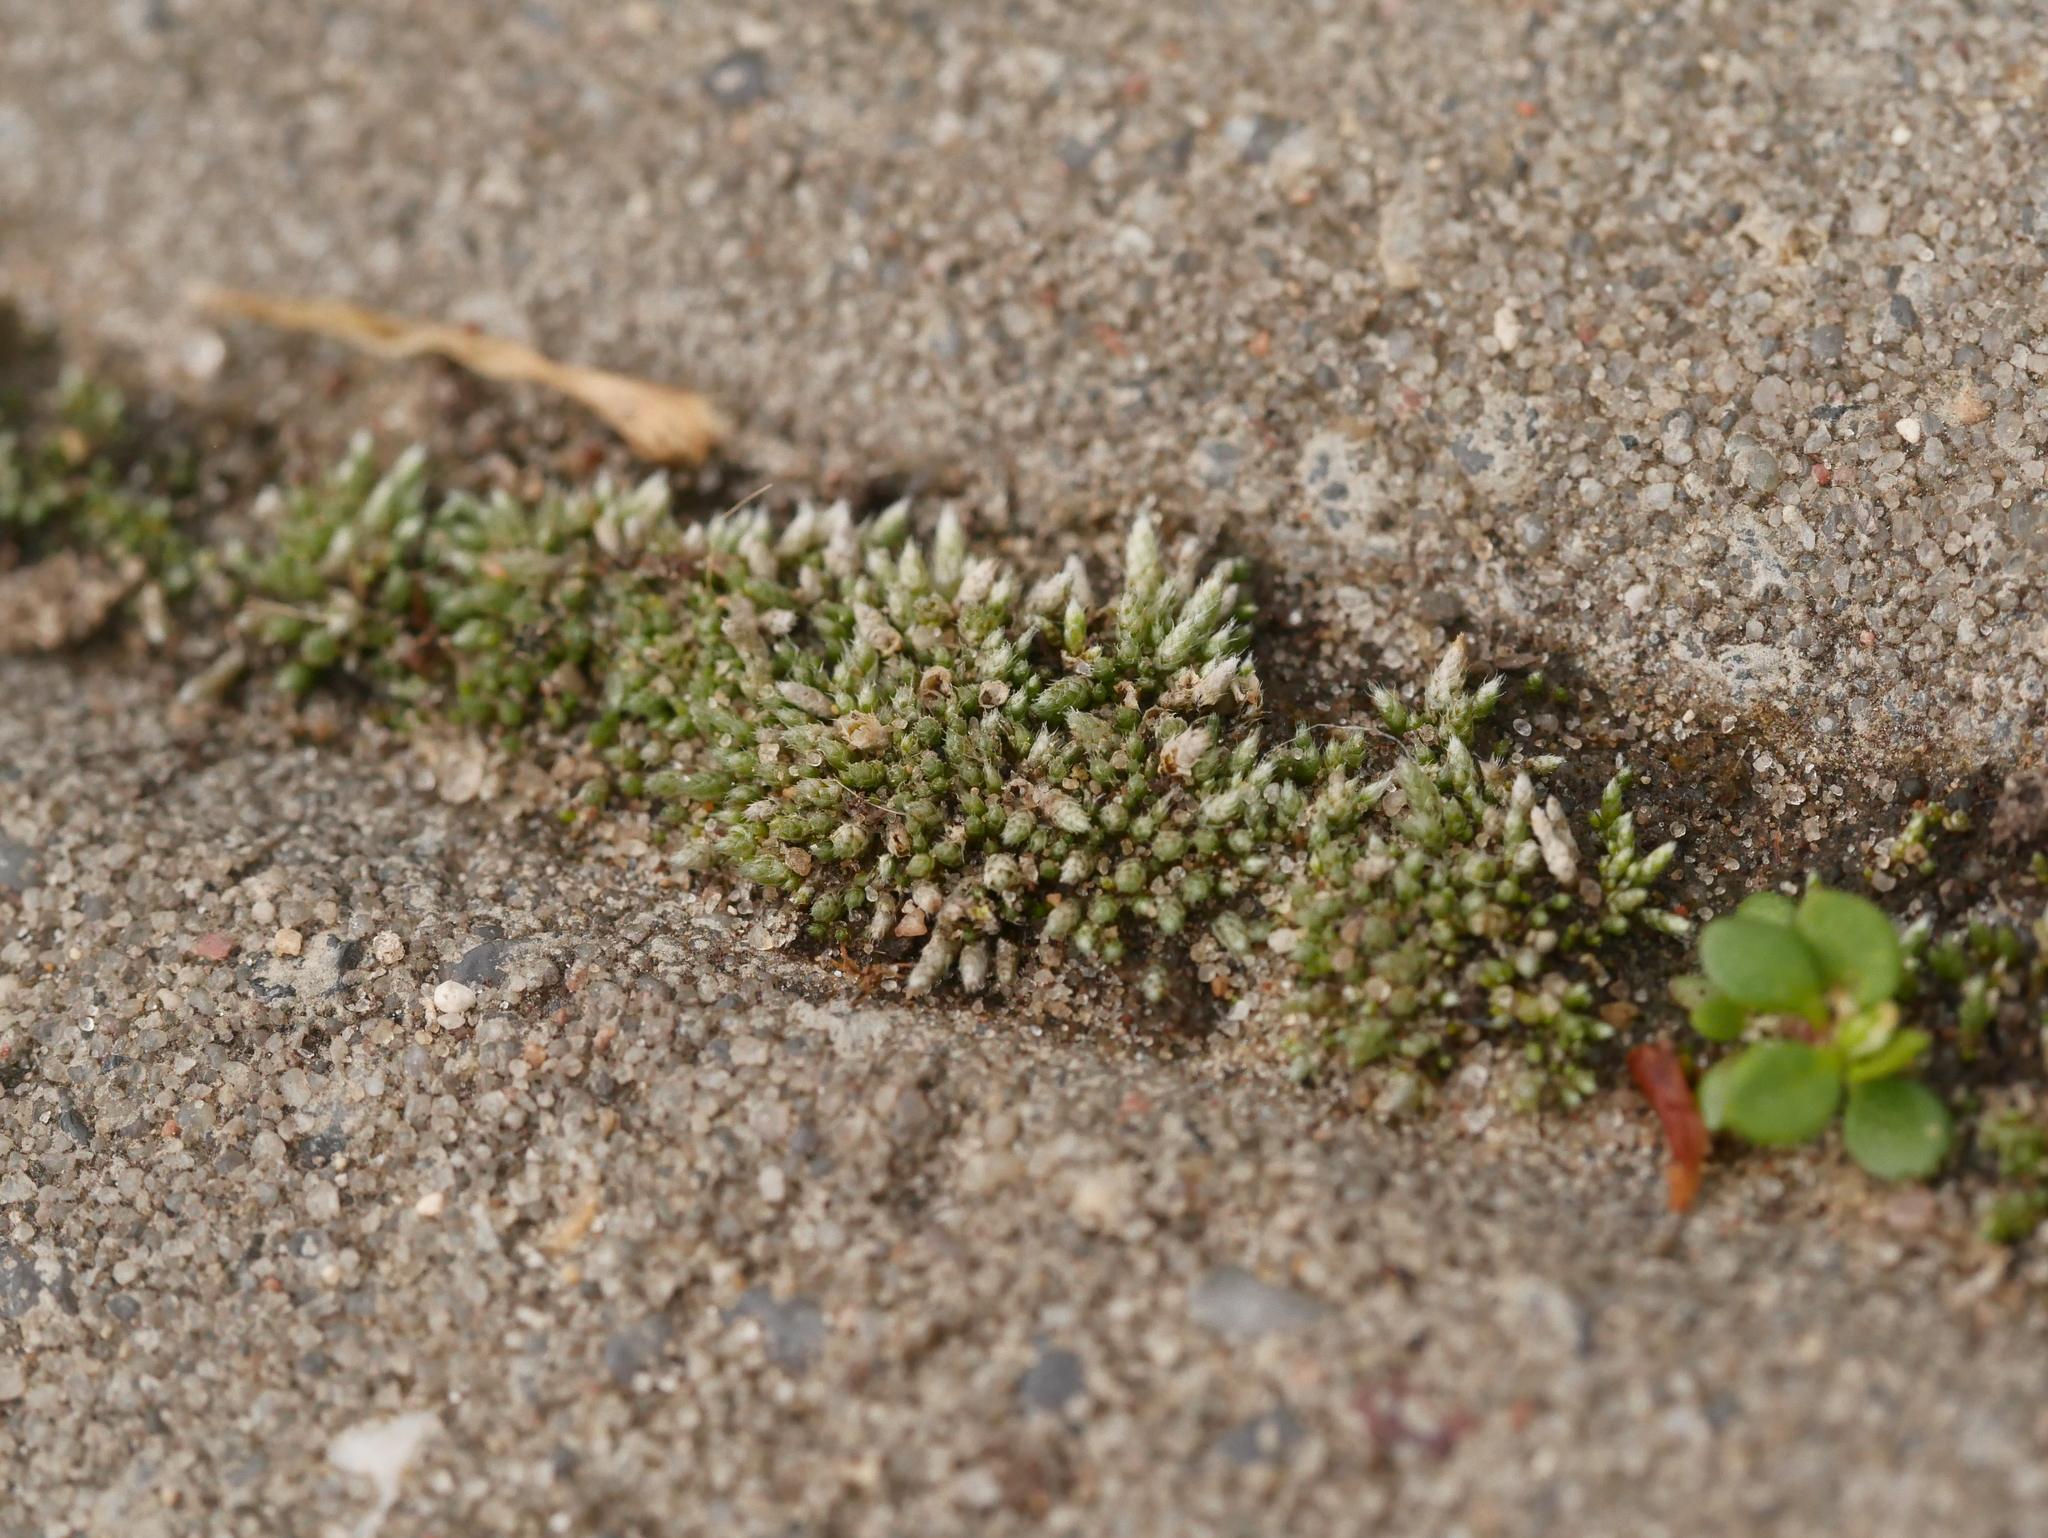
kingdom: Plantae
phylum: Bryophyta
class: Bryopsida
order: Bryales
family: Bryaceae
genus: Bryum
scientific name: Bryum argenteum
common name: Silver-moss
